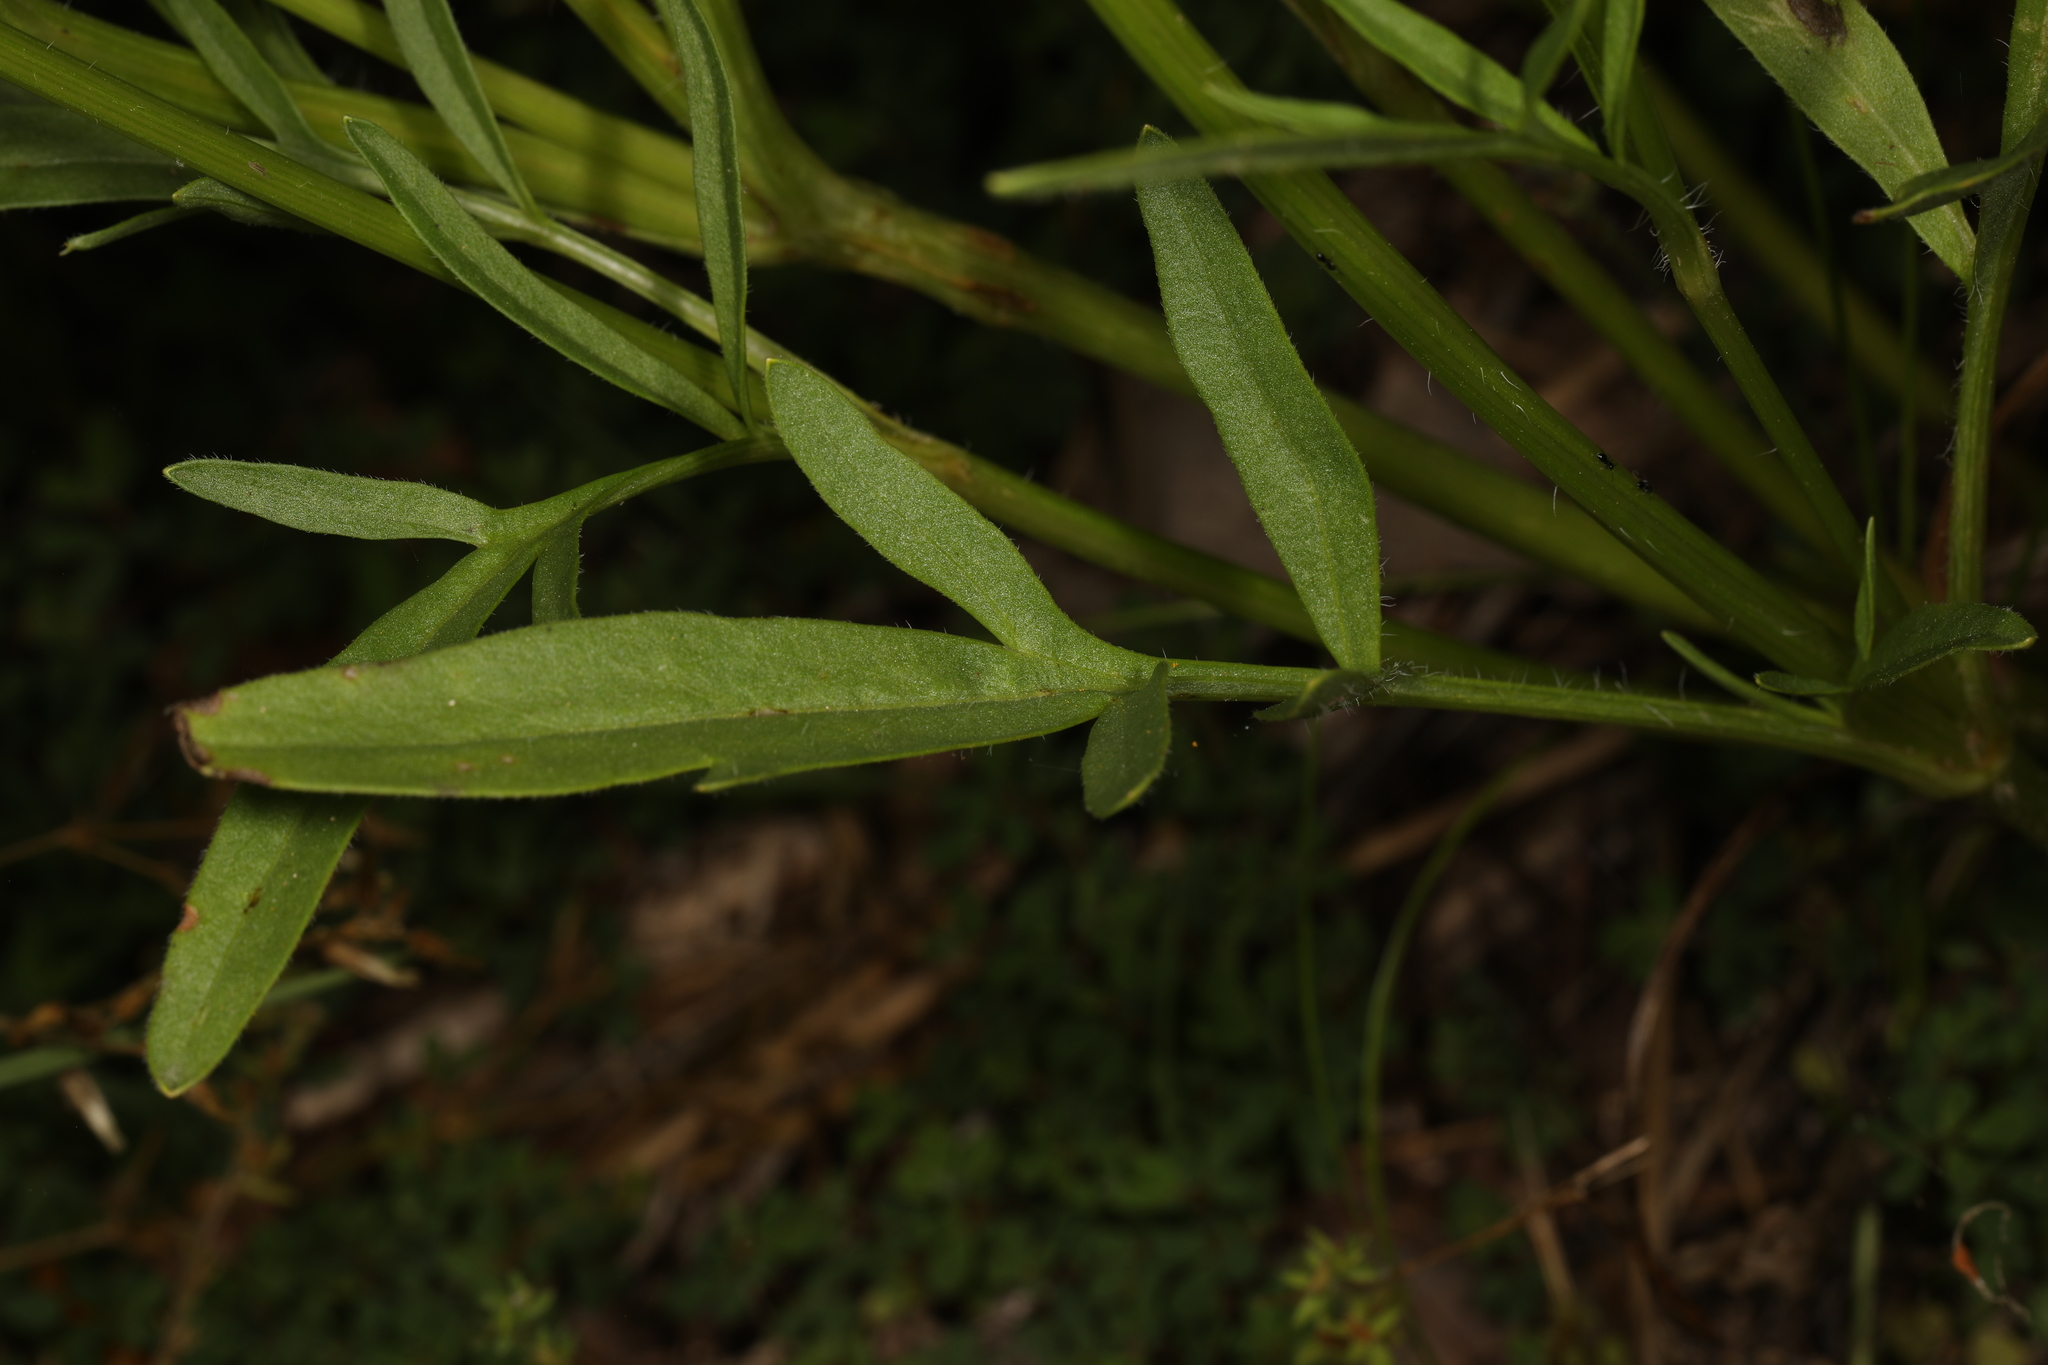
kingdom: Plantae
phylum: Tracheophyta
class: Magnoliopsida
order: Asterales
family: Asteraceae
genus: Cosmos
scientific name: Cosmos sulphureus
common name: Sulphur cosmos
